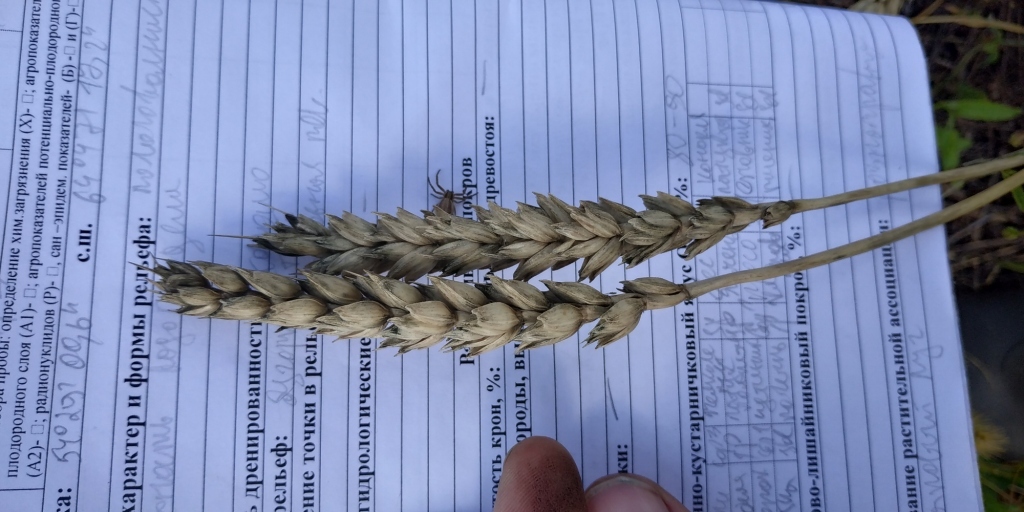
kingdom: Plantae
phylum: Tracheophyta
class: Liliopsida
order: Poales
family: Poaceae
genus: Triticum
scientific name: Triticum aestivum
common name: Common wheat
